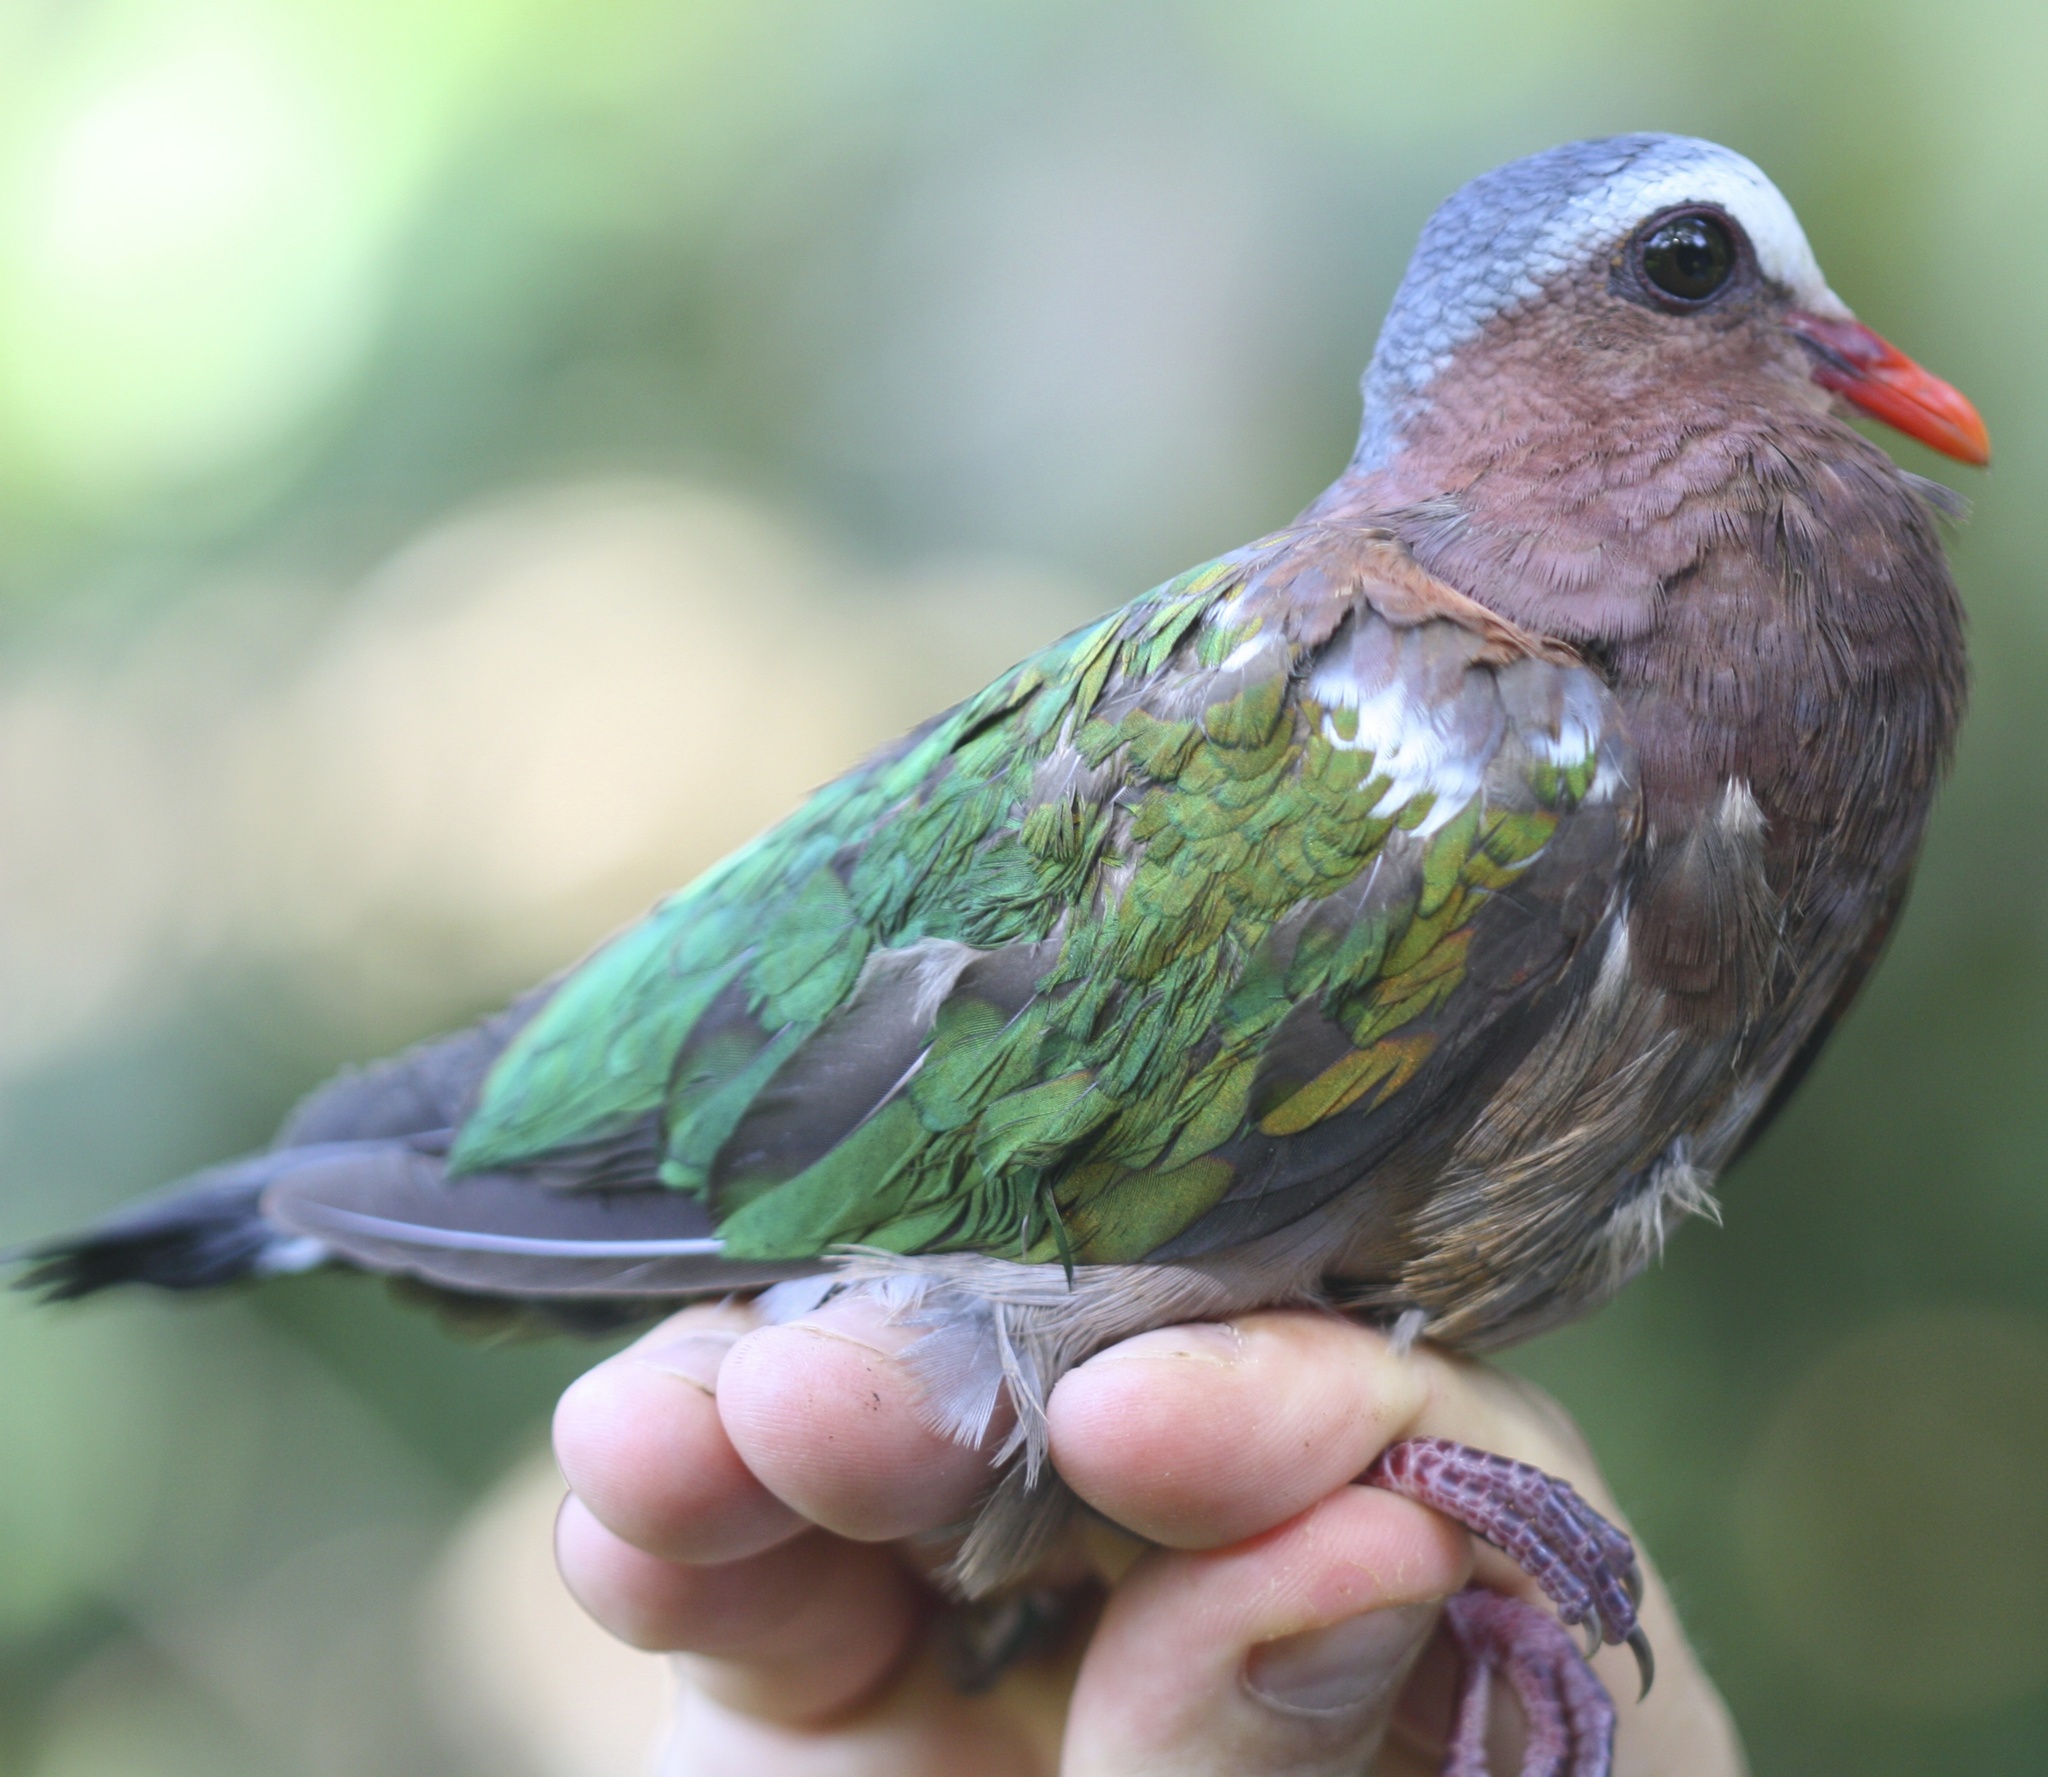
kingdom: Animalia
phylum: Chordata
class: Aves
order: Columbiformes
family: Columbidae
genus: Chalcophaps
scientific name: Chalcophaps indica
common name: Common emerald dove
